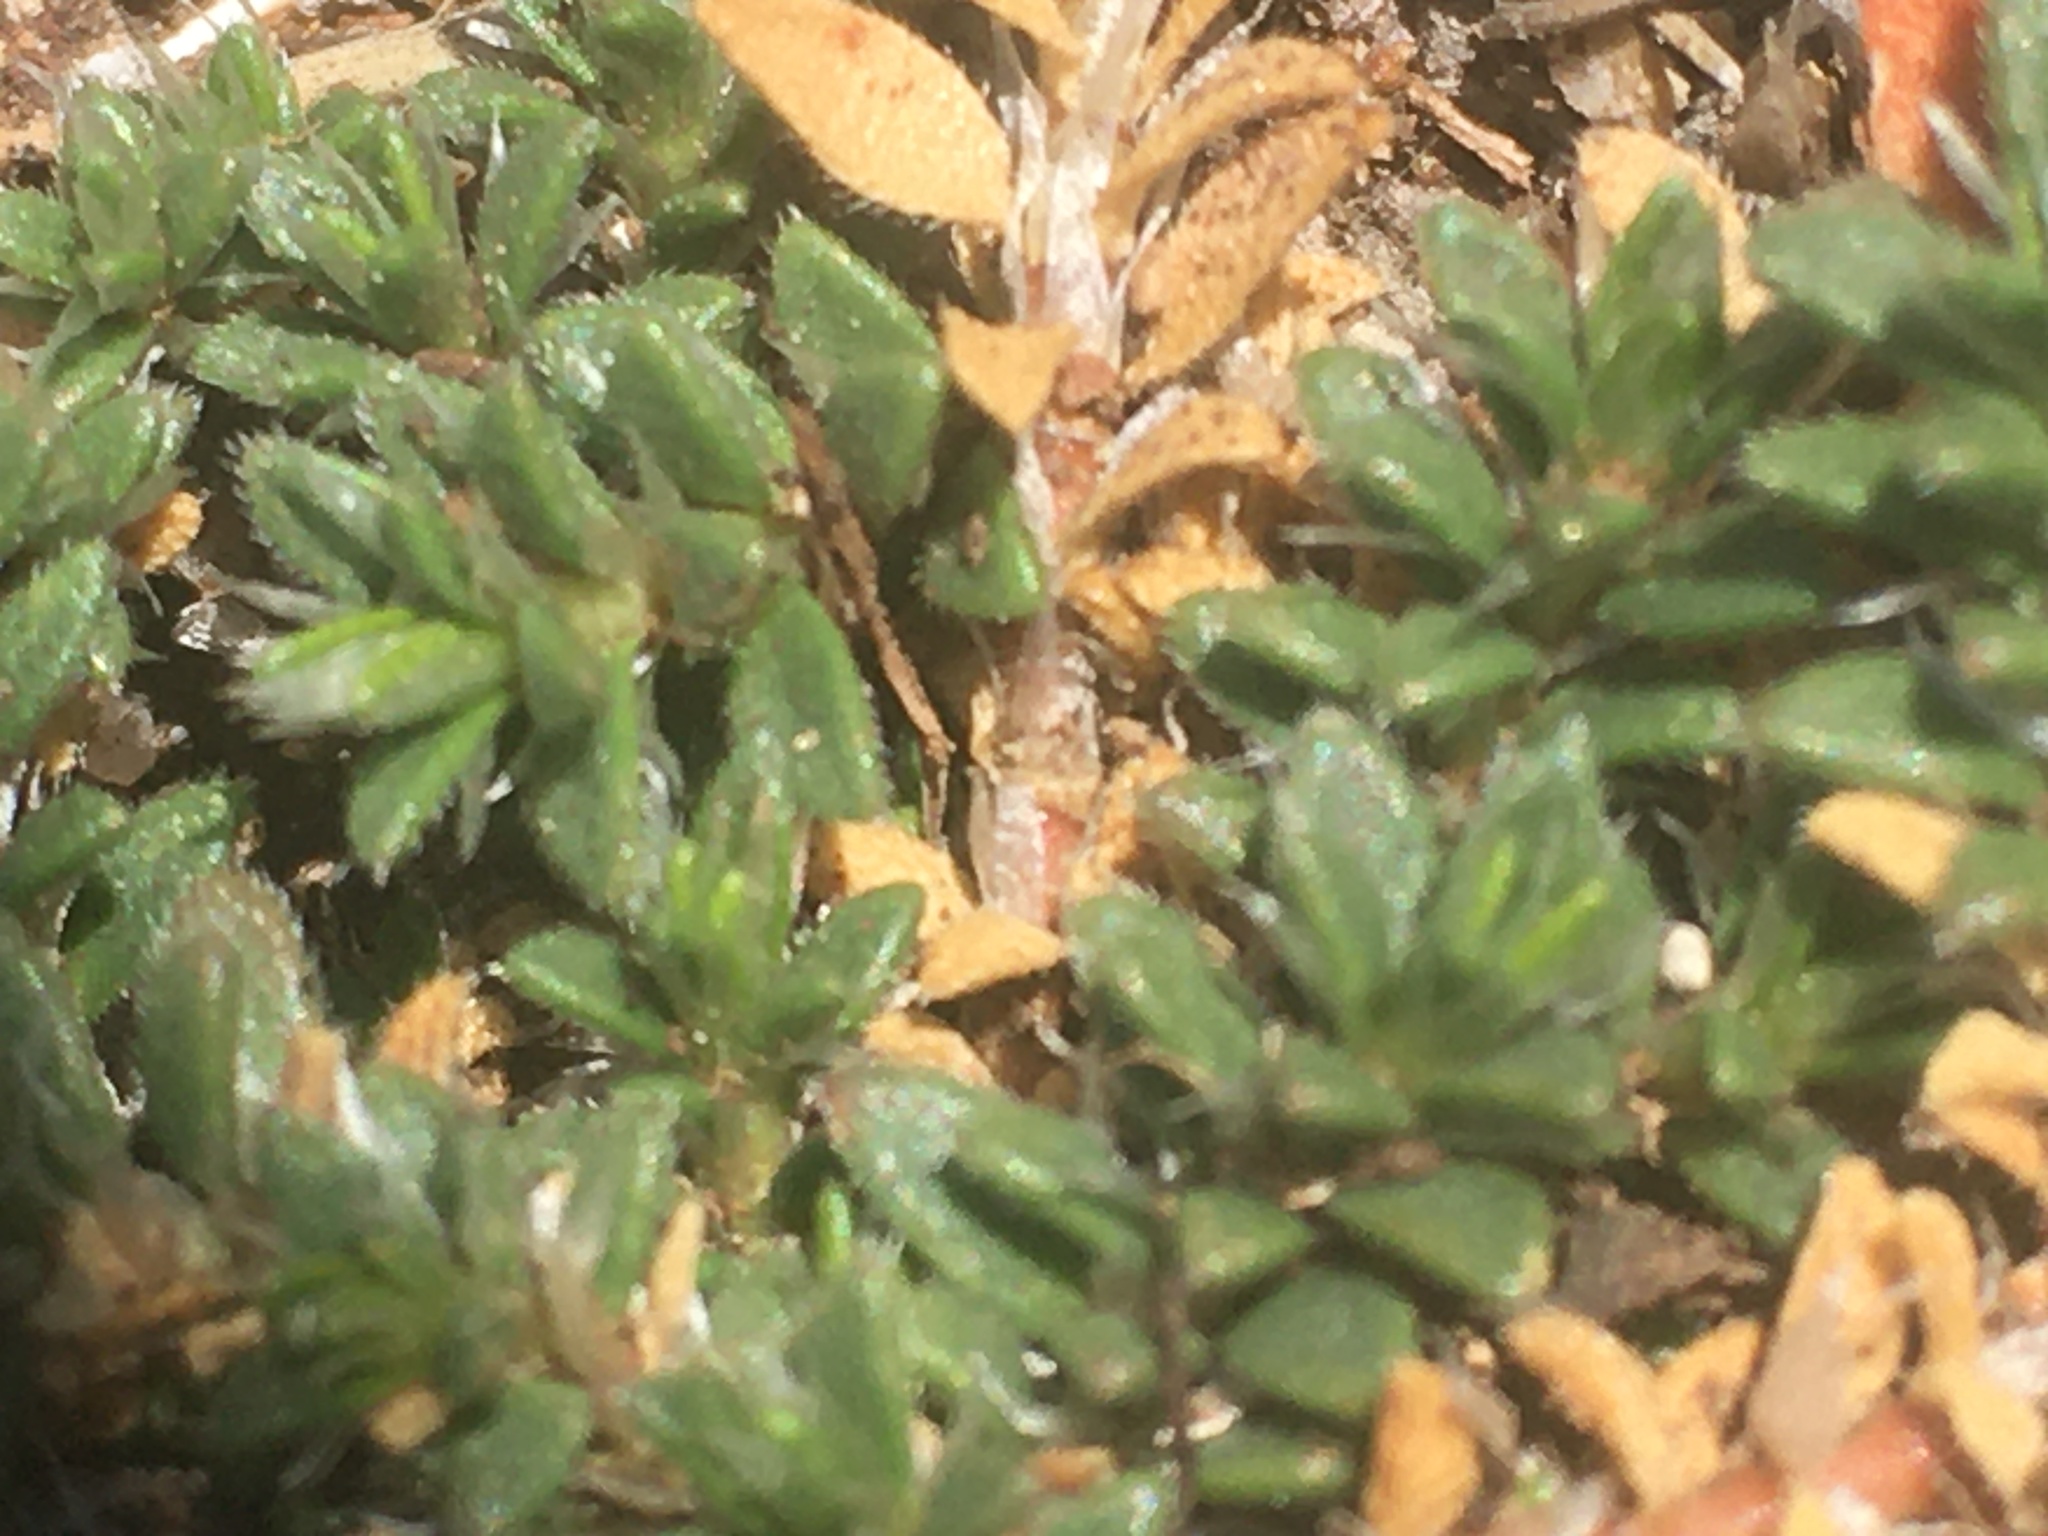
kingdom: Plantae
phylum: Tracheophyta
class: Magnoliopsida
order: Caryophyllales
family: Caryophyllaceae
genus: Paronychia
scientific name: Paronychia cephalotes
